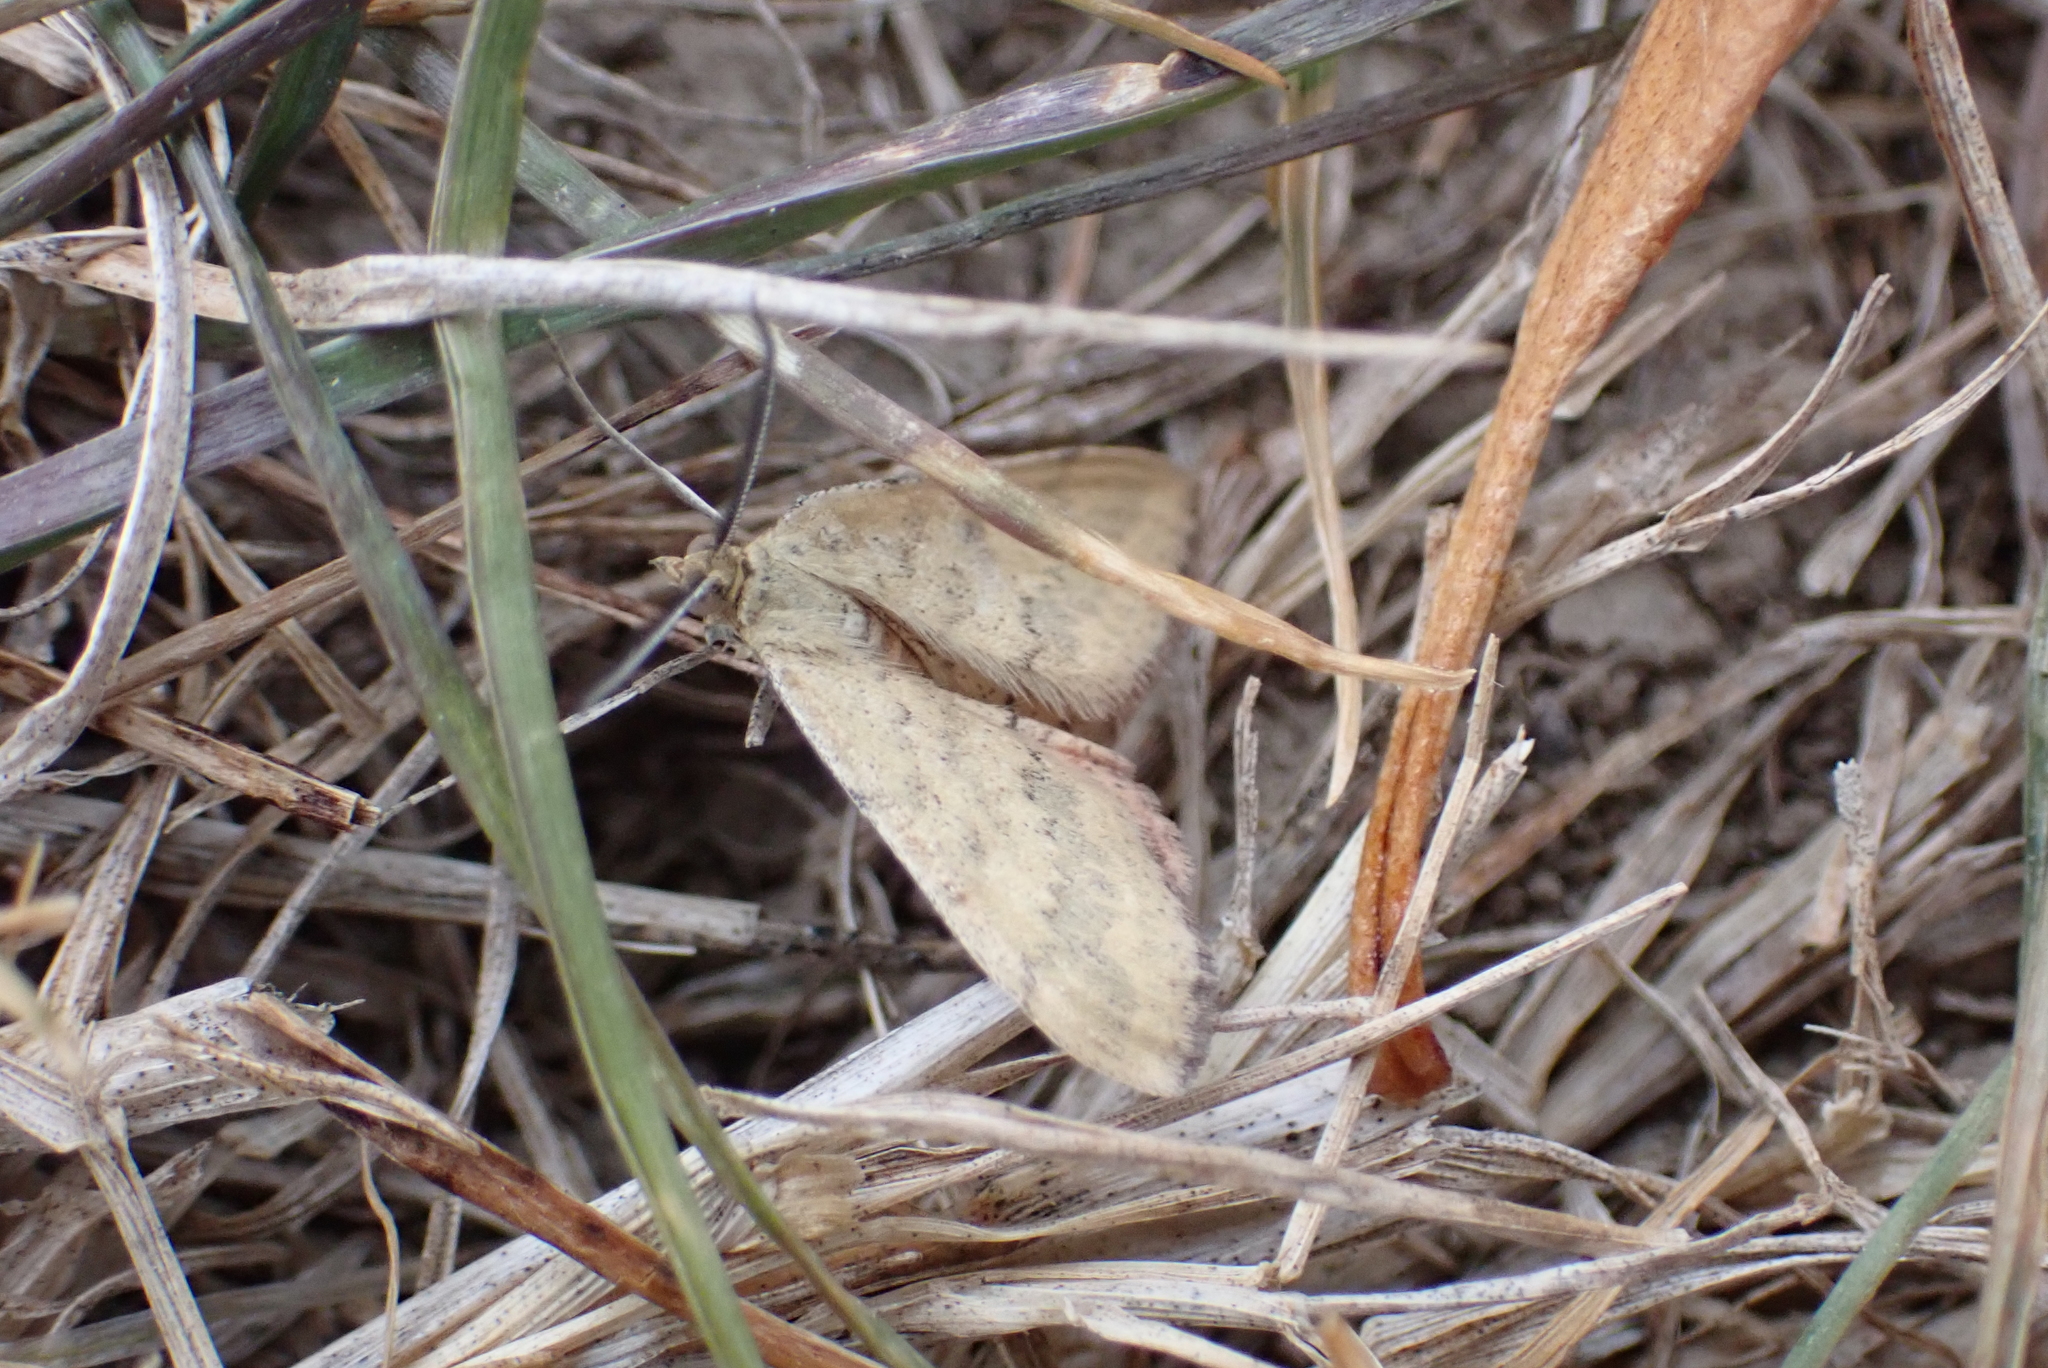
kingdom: Animalia
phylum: Arthropoda
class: Insecta
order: Lepidoptera
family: Geometridae
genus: Scopula
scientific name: Scopula rubraria
